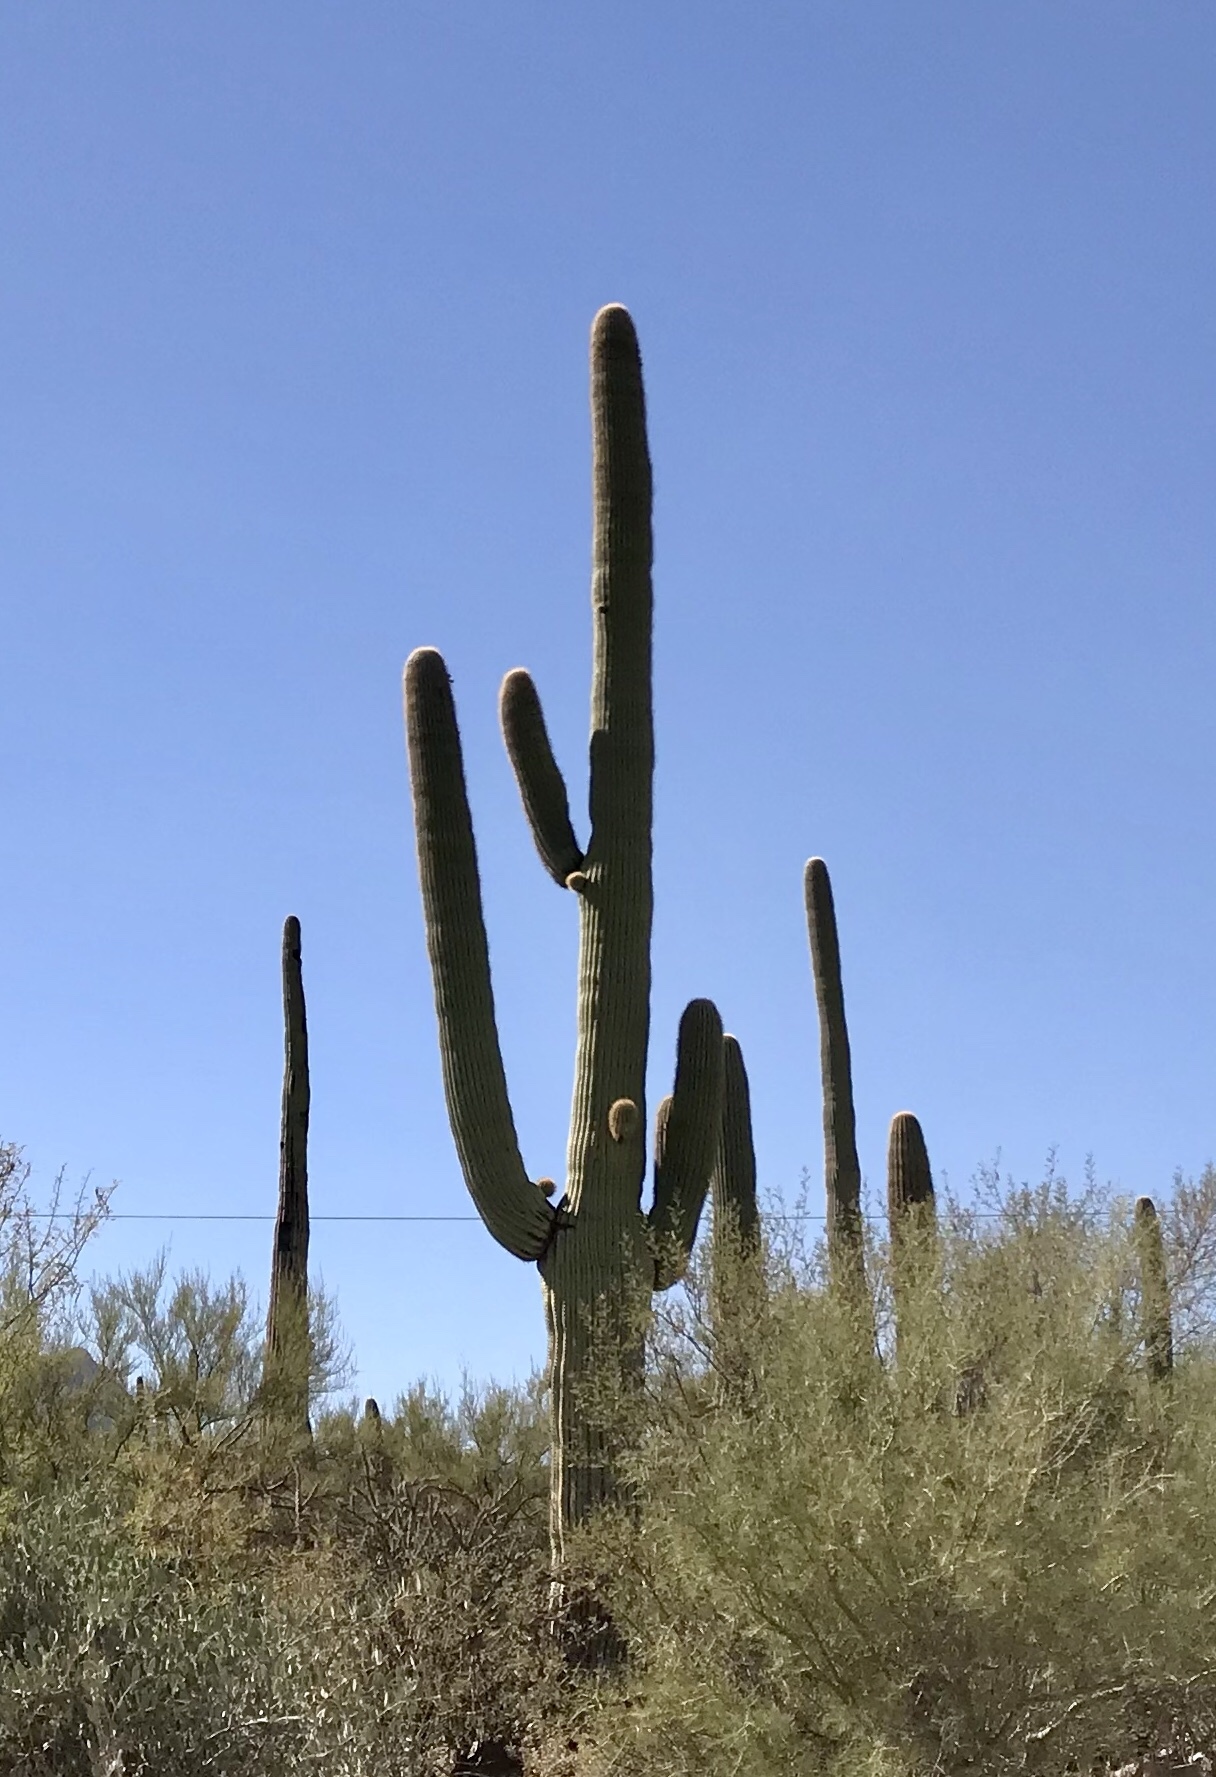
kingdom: Plantae
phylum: Tracheophyta
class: Magnoliopsida
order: Caryophyllales
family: Cactaceae
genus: Carnegiea
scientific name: Carnegiea gigantea
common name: Saguaro
